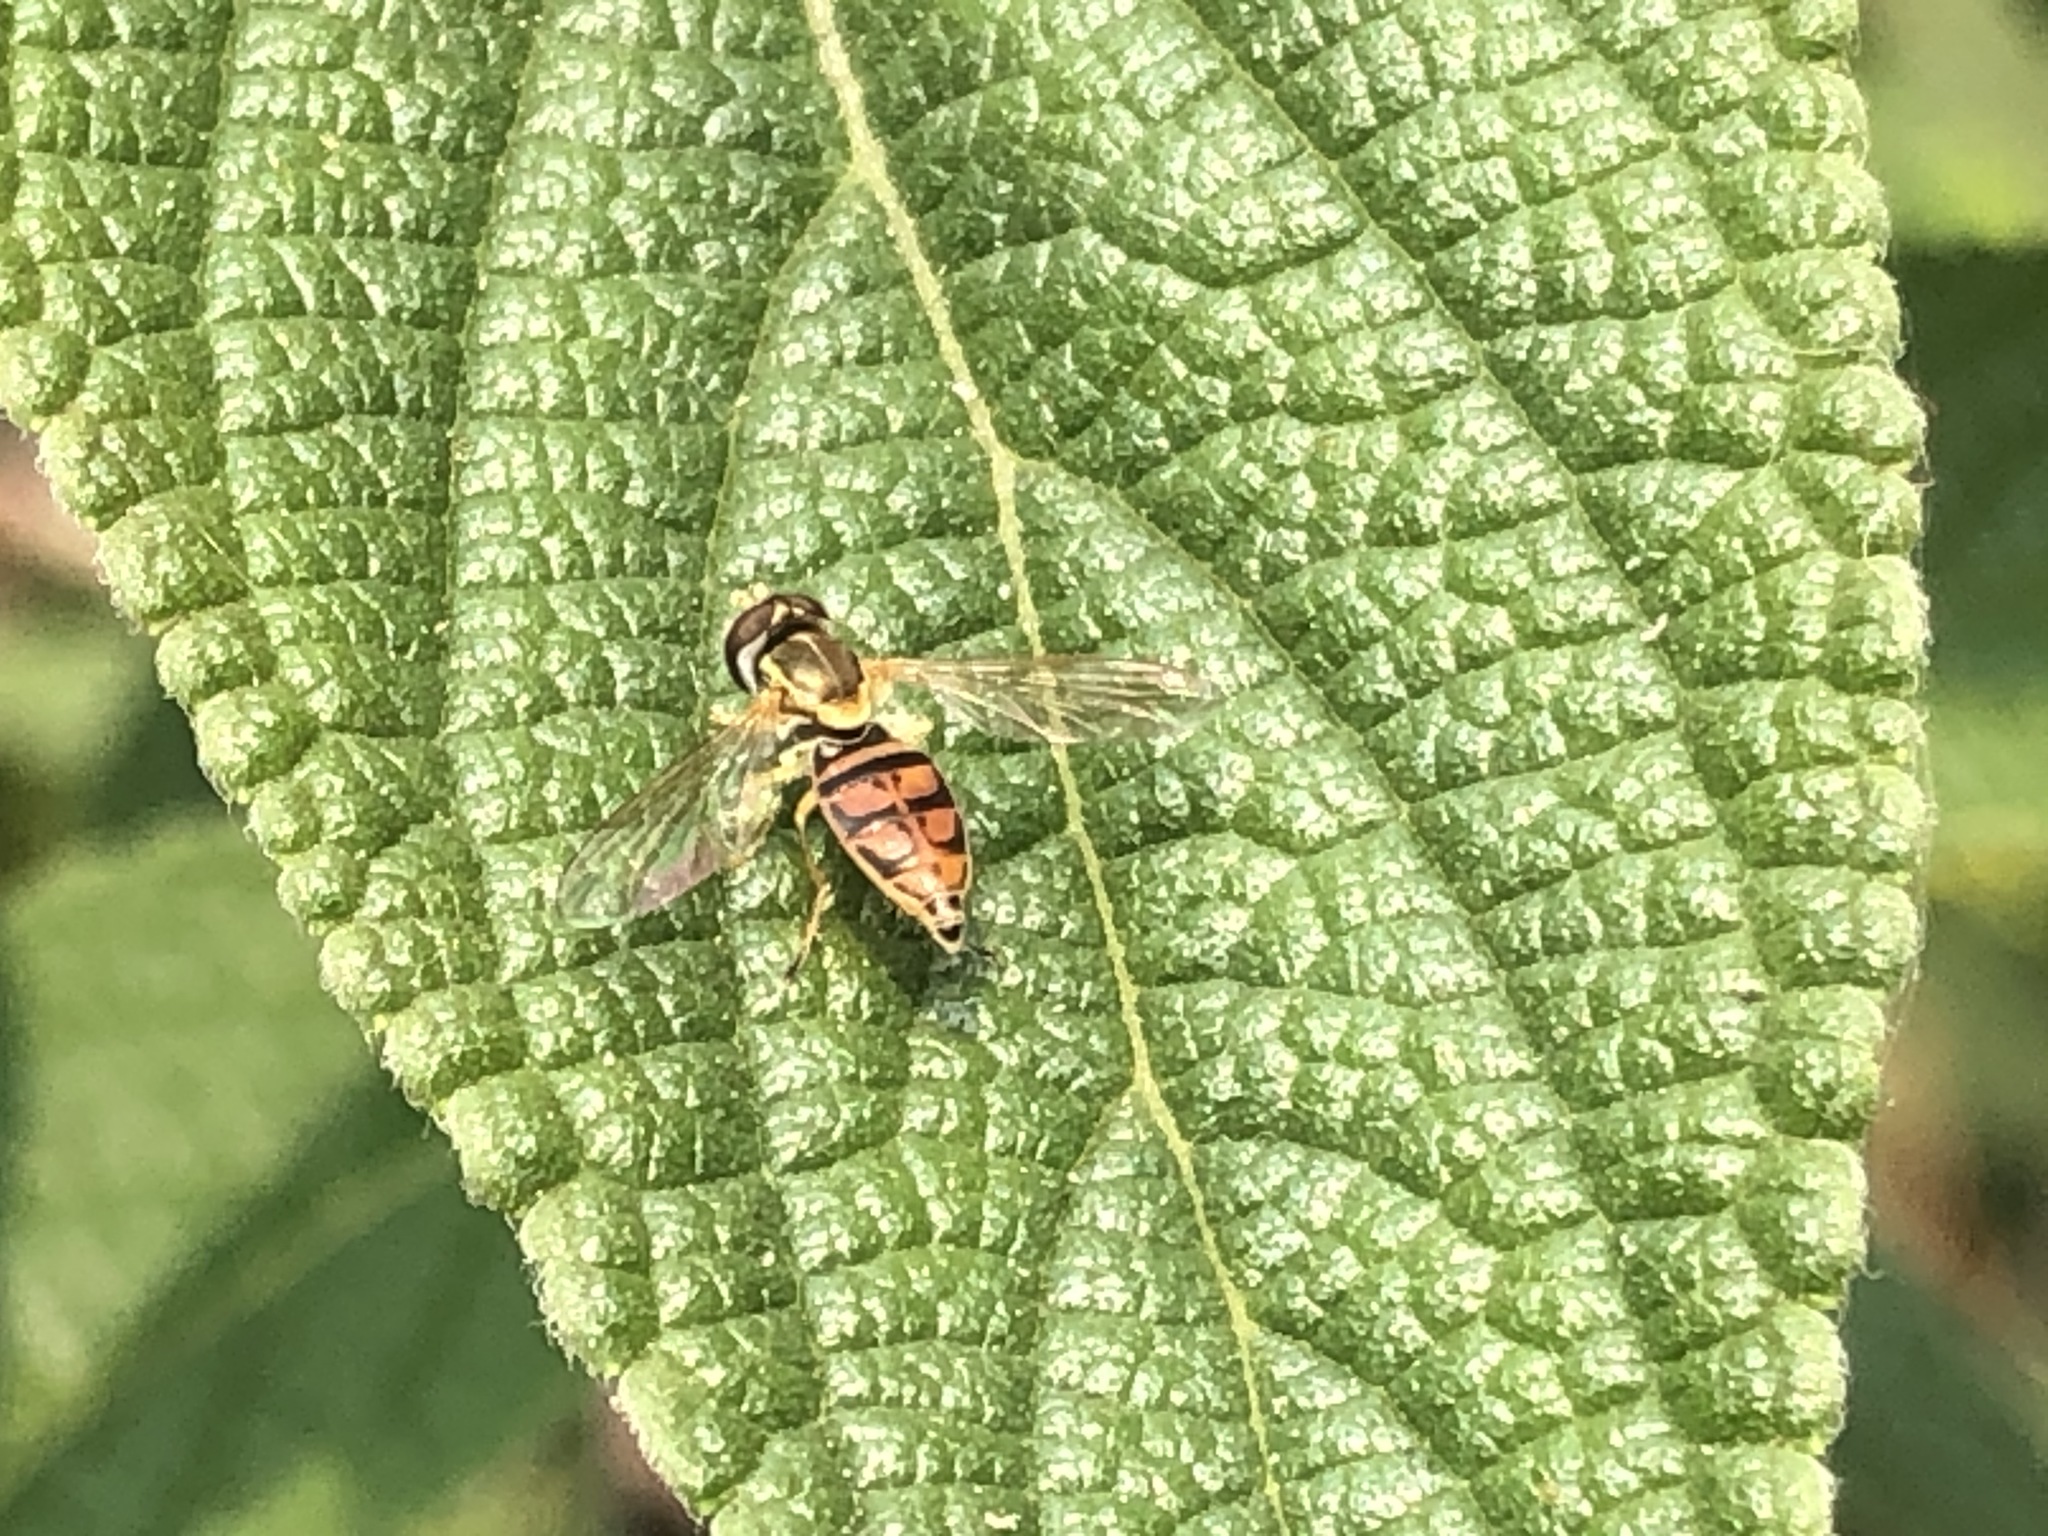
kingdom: Animalia
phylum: Arthropoda
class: Insecta
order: Diptera
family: Syrphidae
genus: Toxomerus
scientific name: Toxomerus marginatus
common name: Syrphid fly
